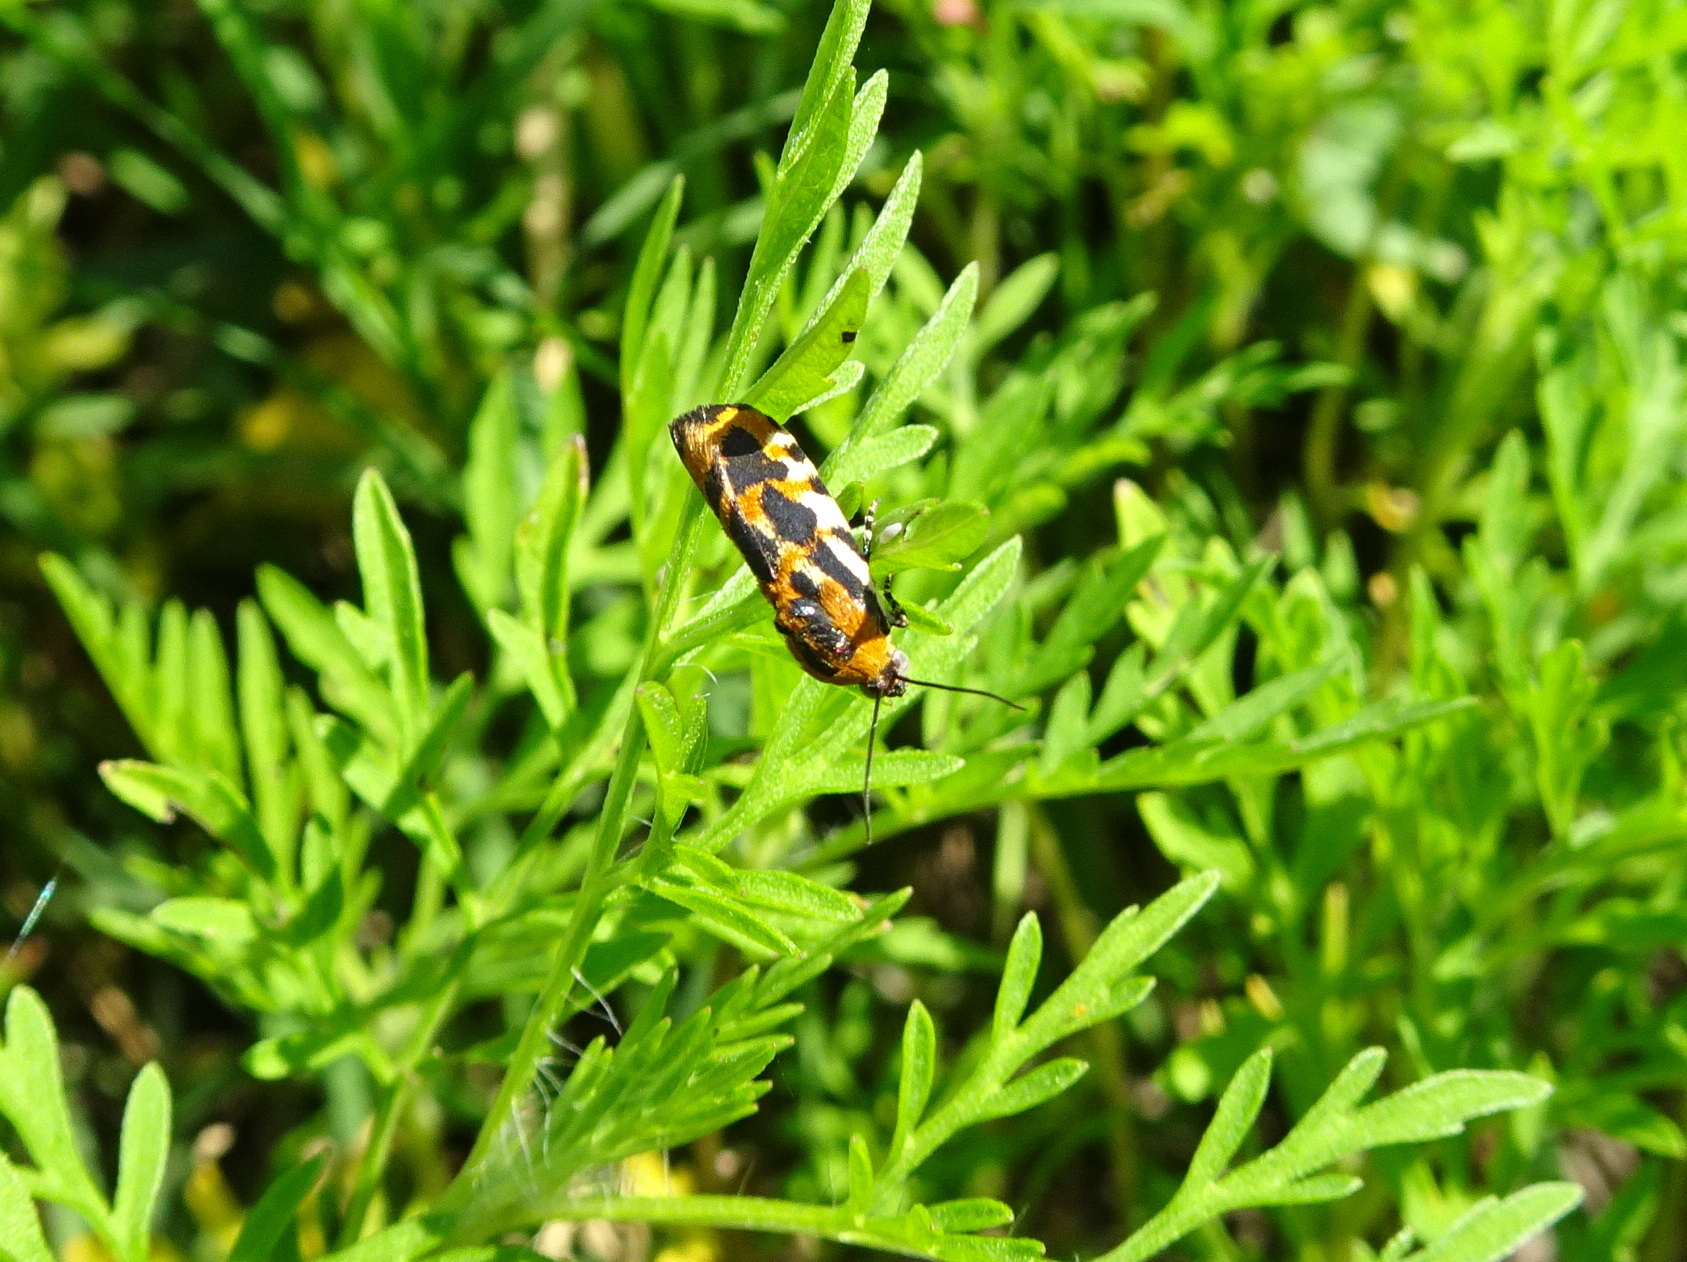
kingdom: Animalia
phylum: Arthropoda
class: Insecta
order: Lepidoptera
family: Noctuidae
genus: Acontia
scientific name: Acontia leo
